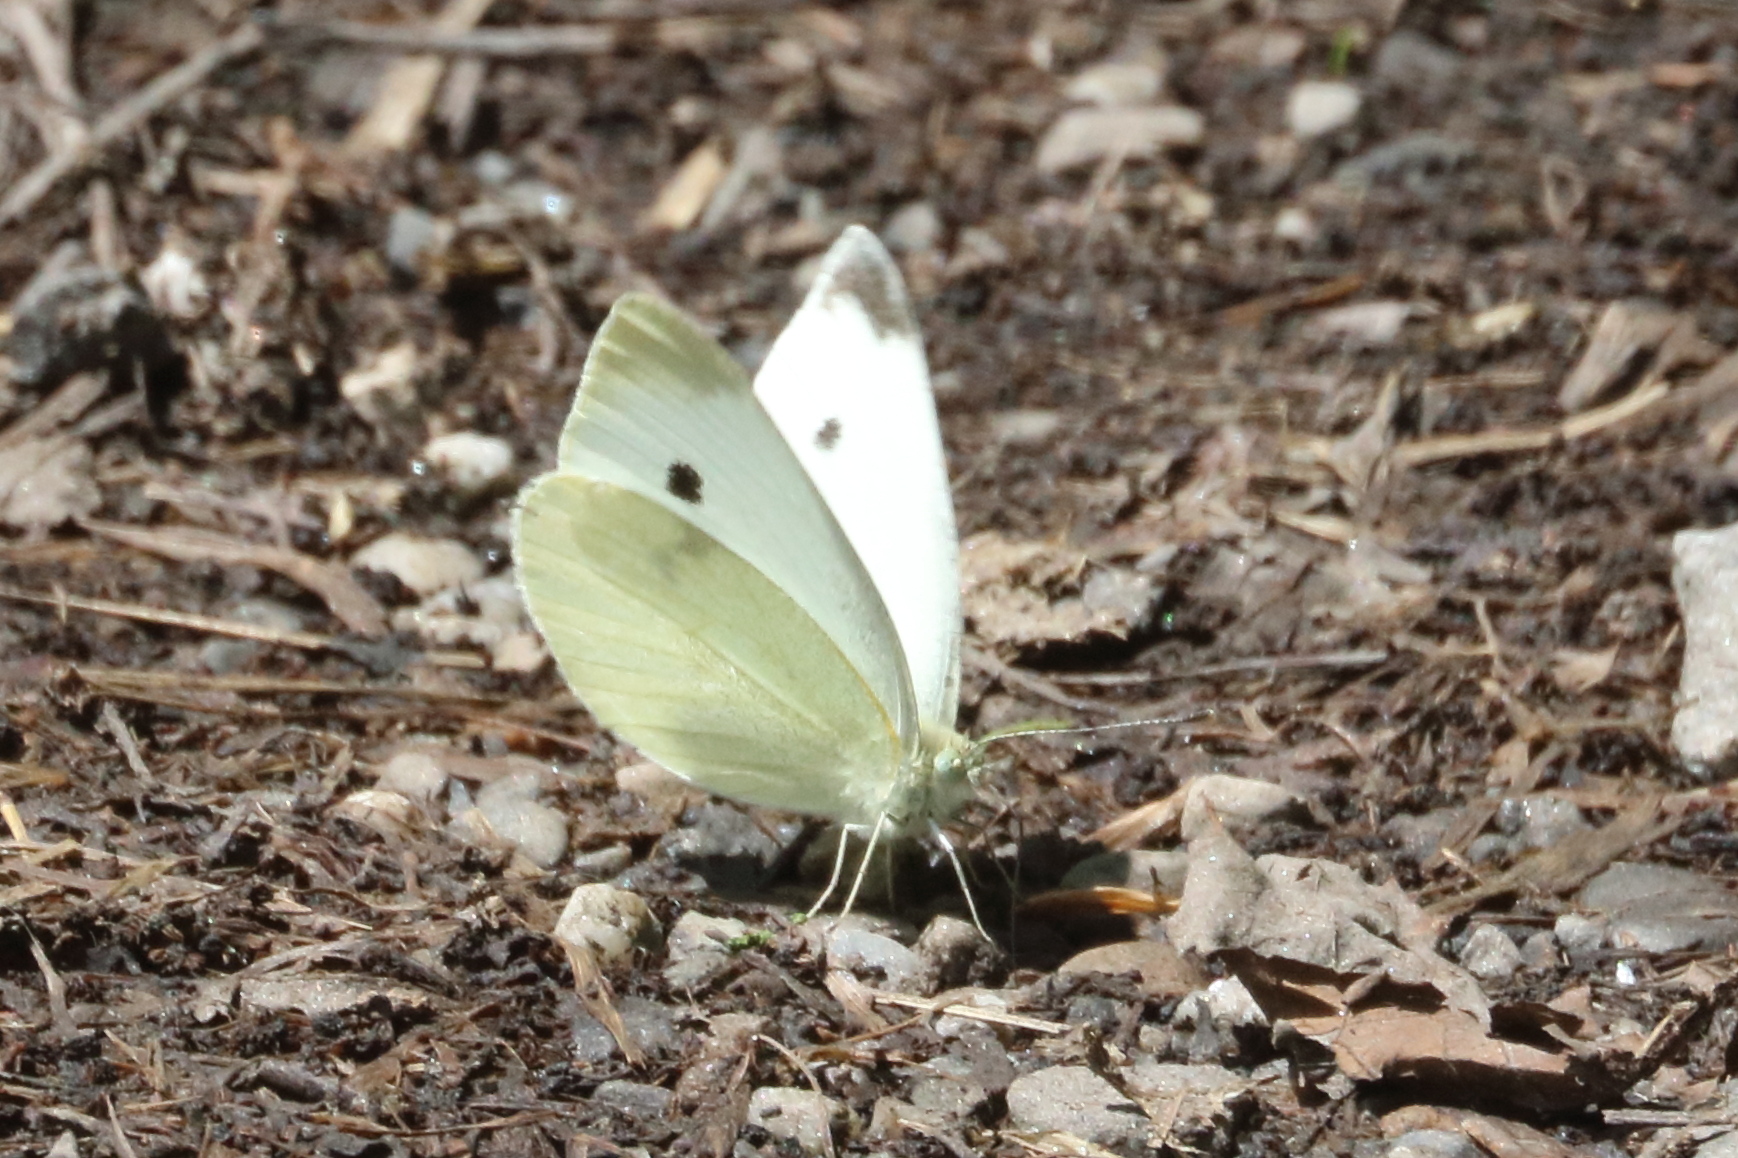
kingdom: Animalia
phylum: Arthropoda
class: Insecta
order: Lepidoptera
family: Pieridae
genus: Pieris
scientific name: Pieris rapae
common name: Small white
